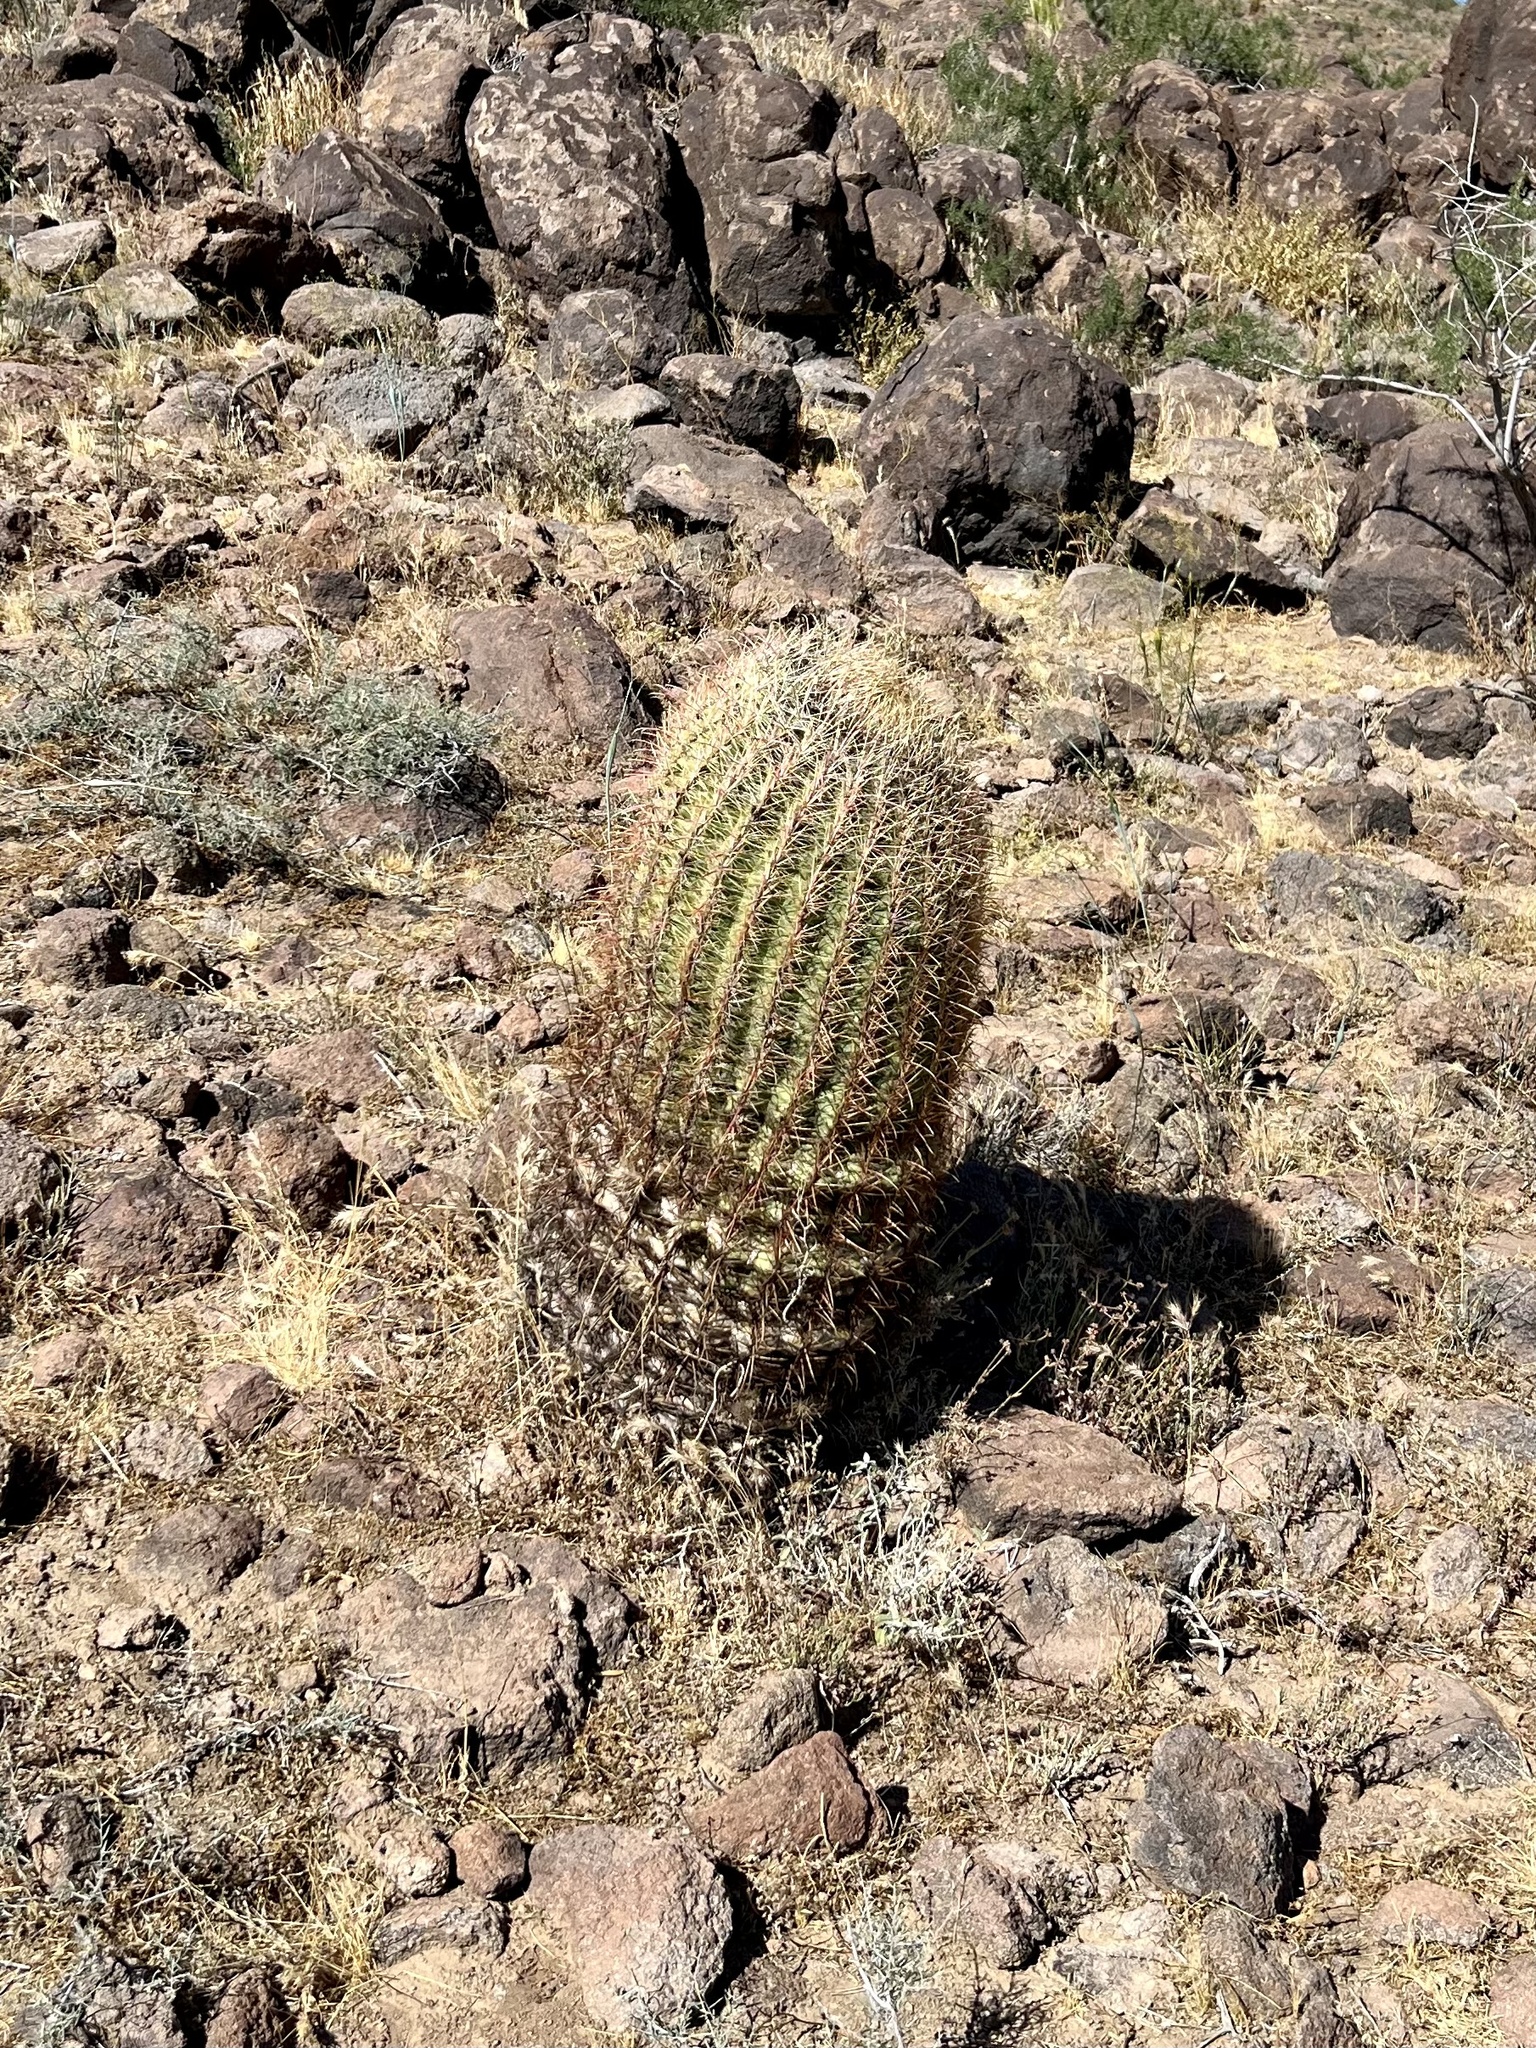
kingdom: Plantae
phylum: Tracheophyta
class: Magnoliopsida
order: Caryophyllales
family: Cactaceae
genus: Ferocactus
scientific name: Ferocactus cylindraceus
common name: California barrel cactus
